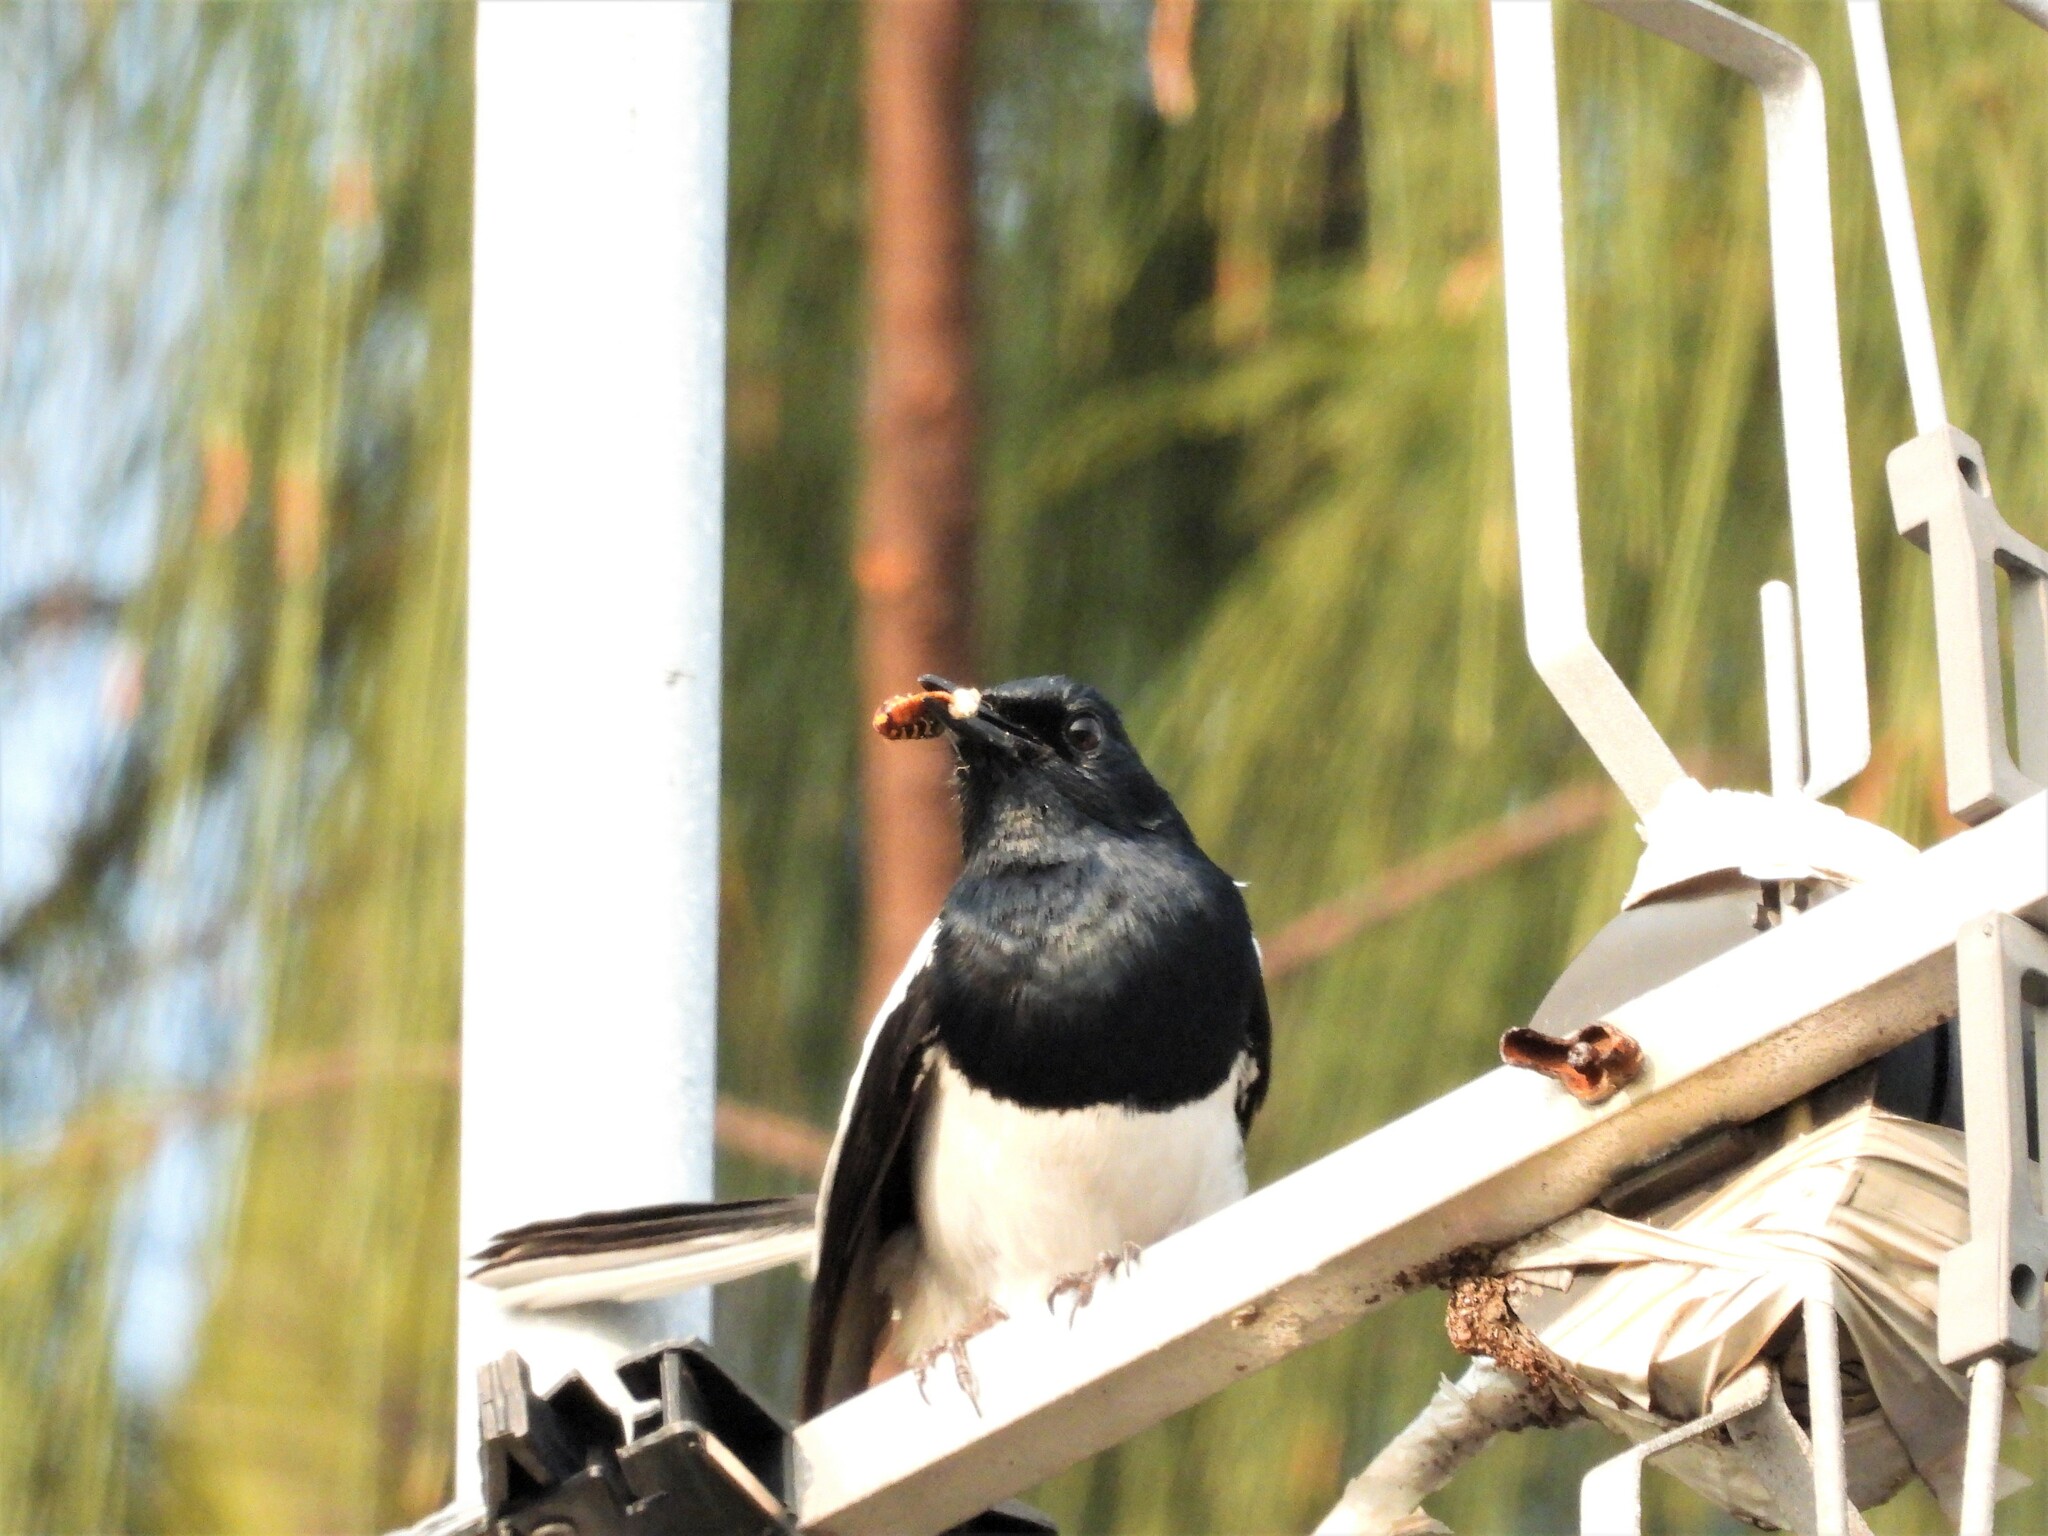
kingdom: Animalia
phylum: Chordata
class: Aves
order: Passeriformes
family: Muscicapidae
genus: Copsychus
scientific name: Copsychus saularis
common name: Oriental magpie-robin
